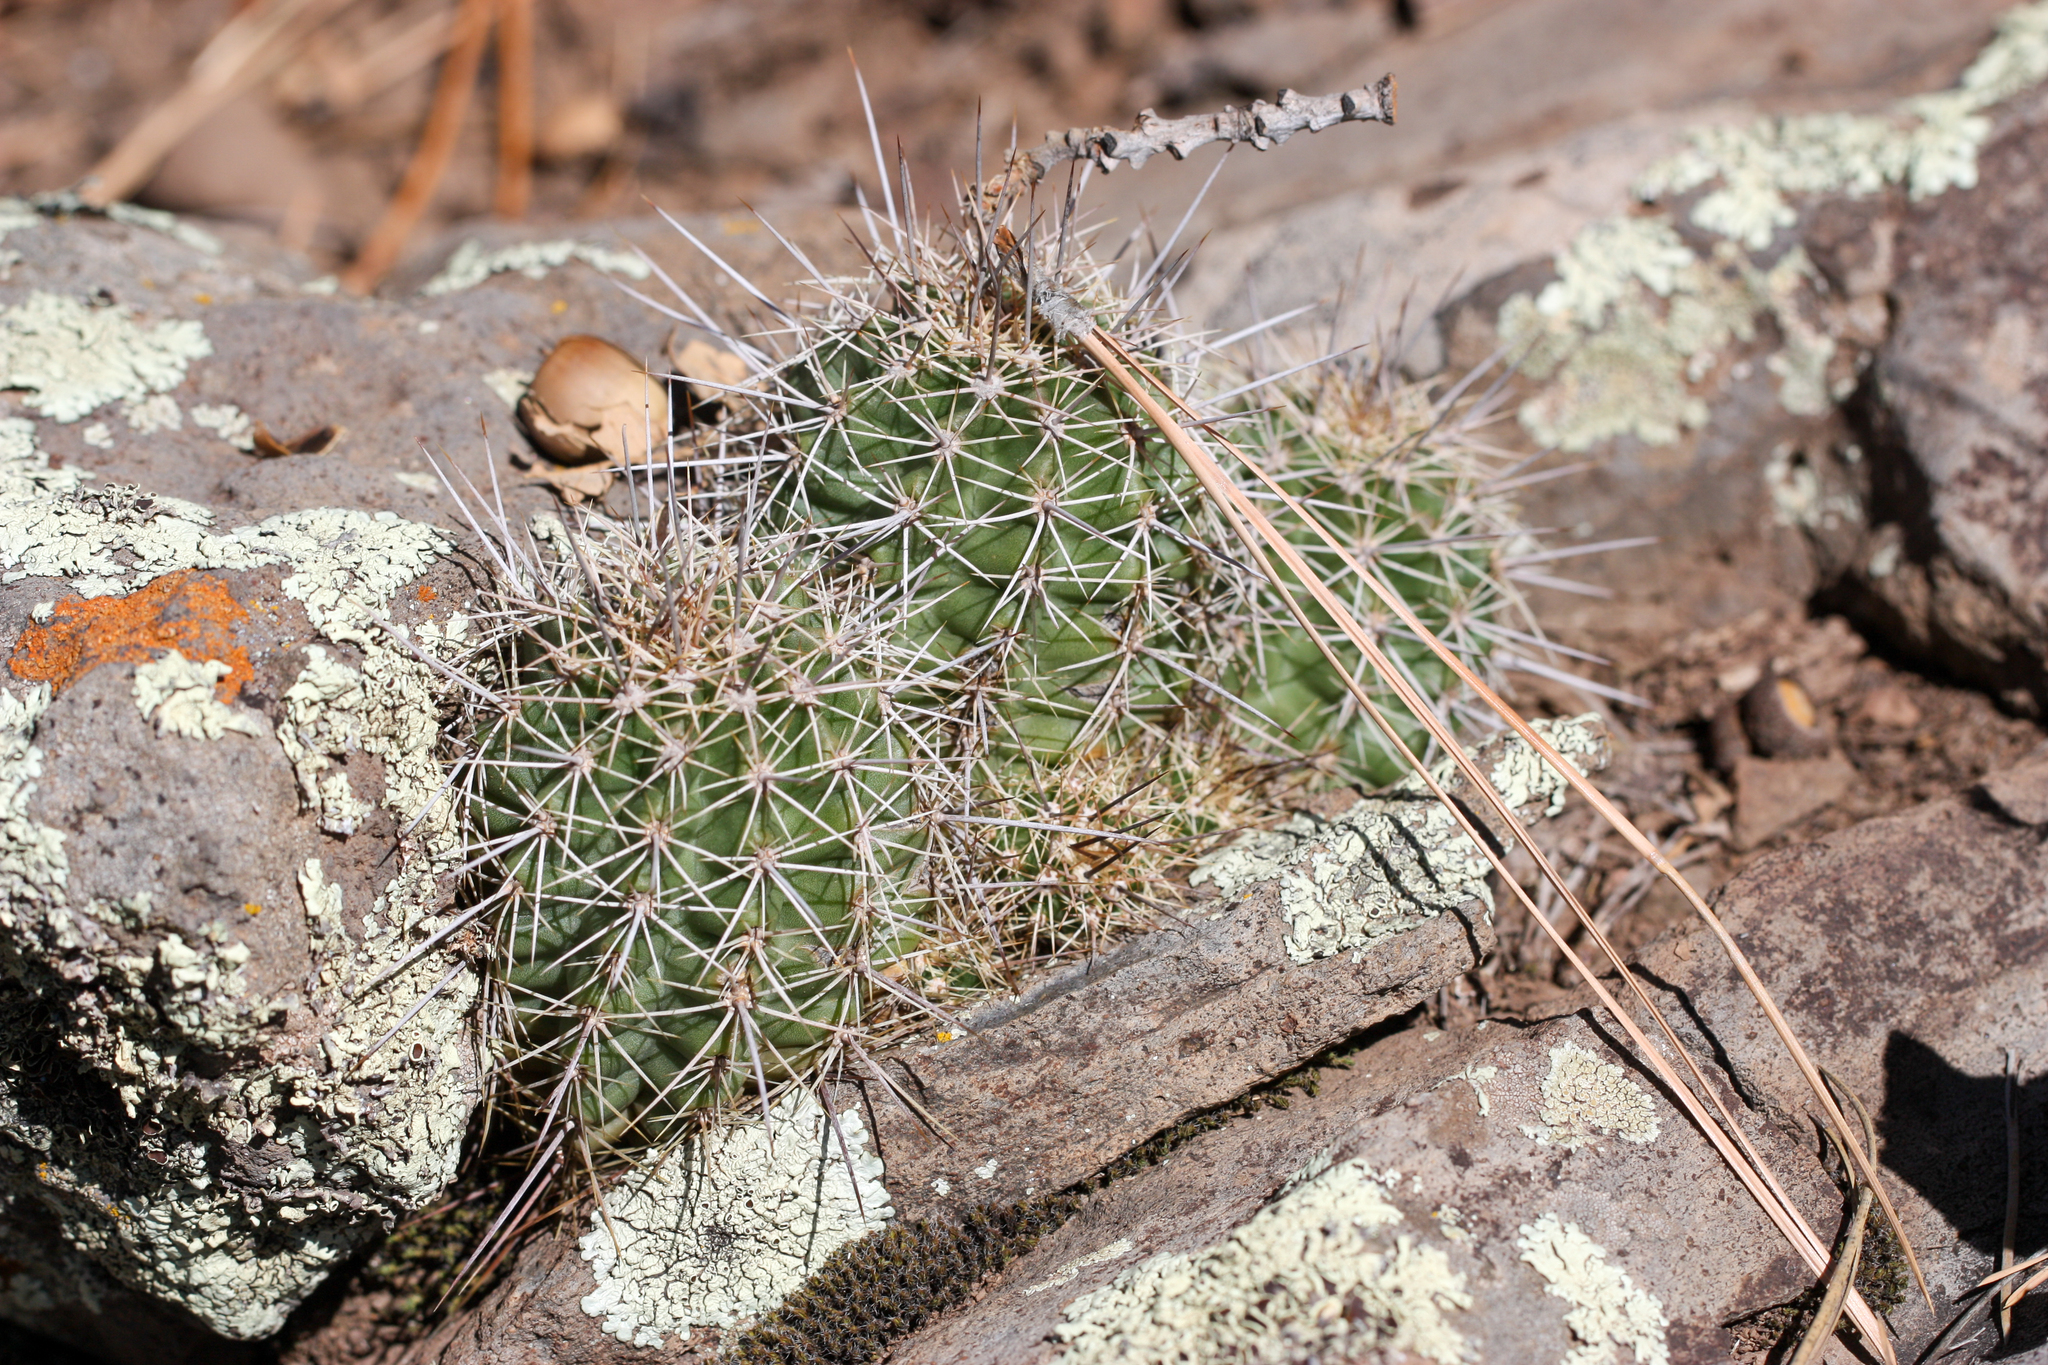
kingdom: Plantae
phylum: Tracheophyta
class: Magnoliopsida
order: Caryophyllales
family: Cactaceae
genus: Echinocereus
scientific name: Echinocereus bakeri
